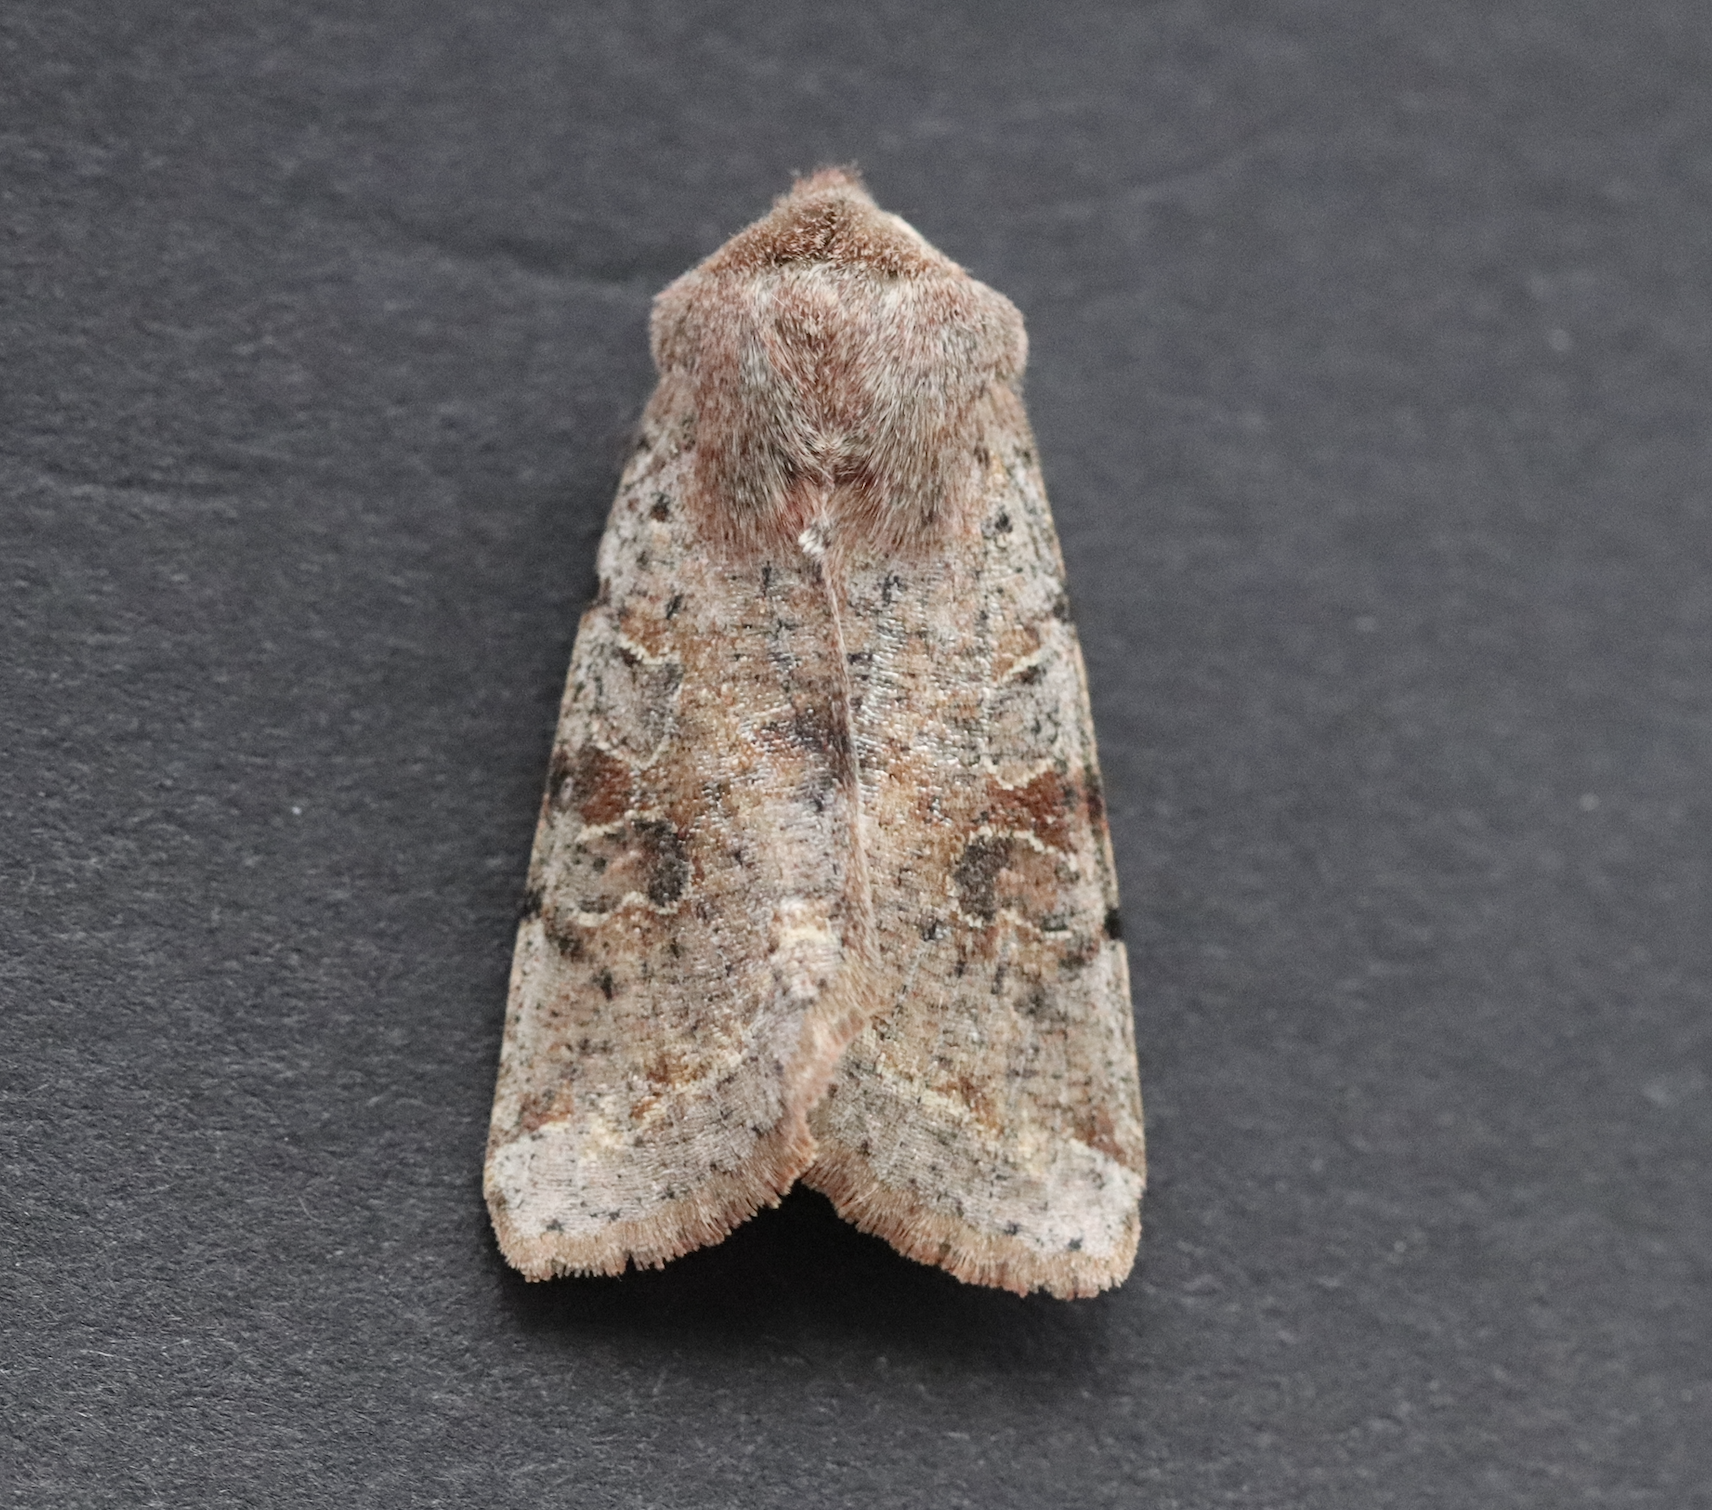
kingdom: Animalia
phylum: Arthropoda
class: Insecta
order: Lepidoptera
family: Noctuidae
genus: Orthosia
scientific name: Orthosia incerta
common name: Clouded drab
